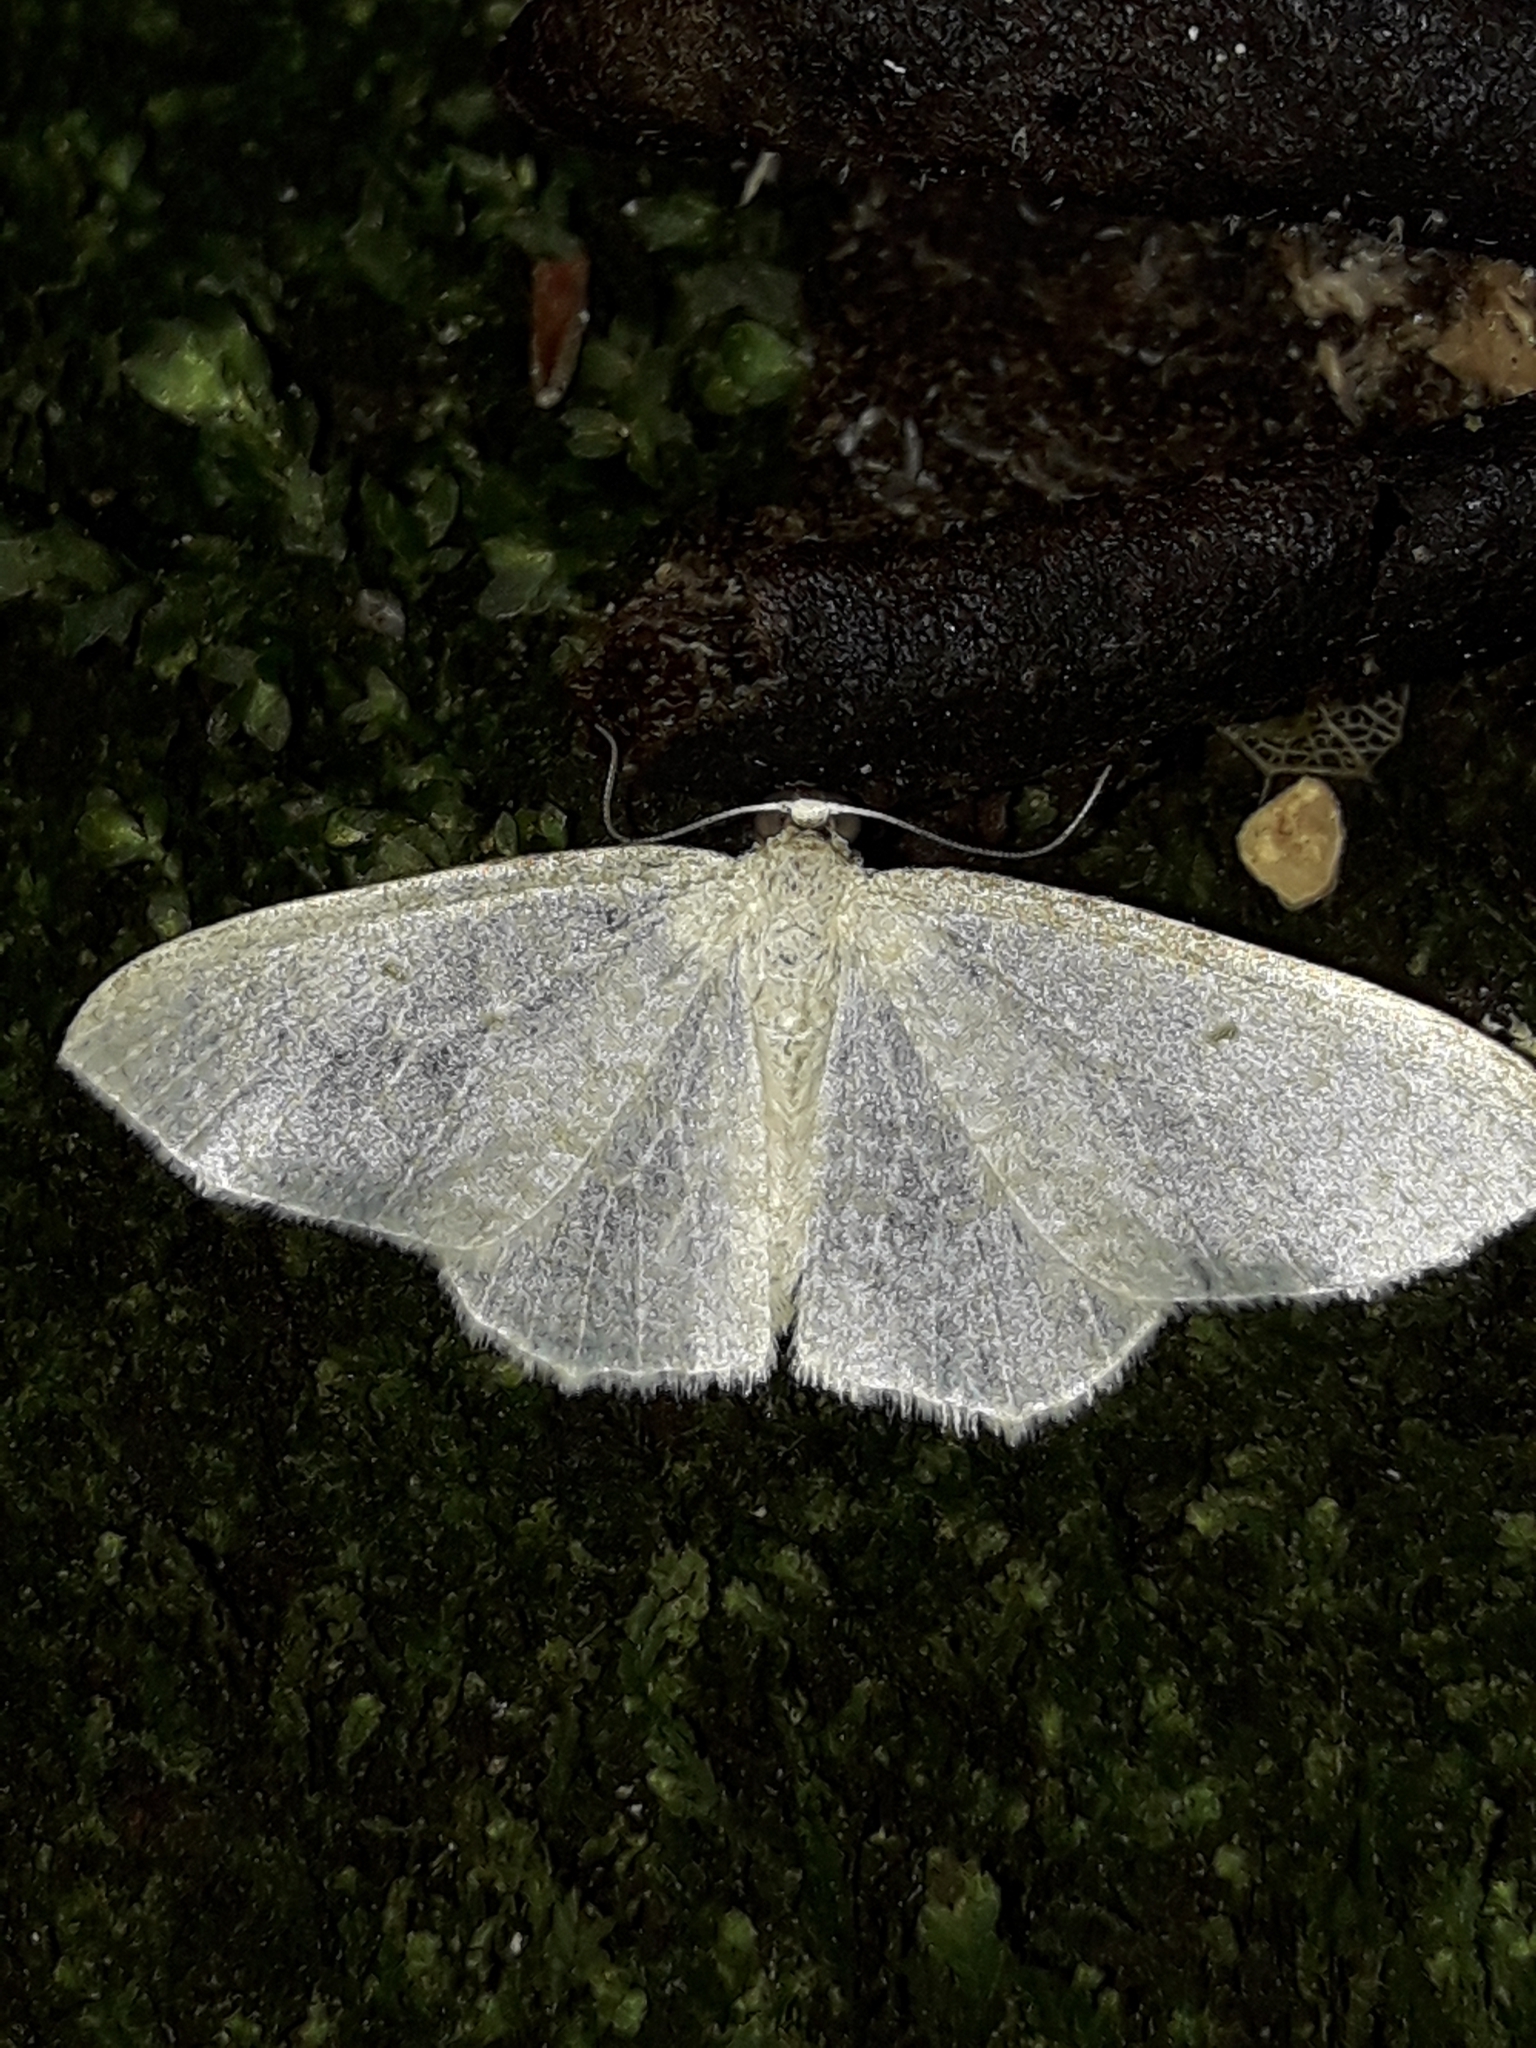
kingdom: Animalia
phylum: Arthropoda
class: Insecta
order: Lepidoptera
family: Geometridae
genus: Poecilasthena
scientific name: Poecilasthena pulchraria
